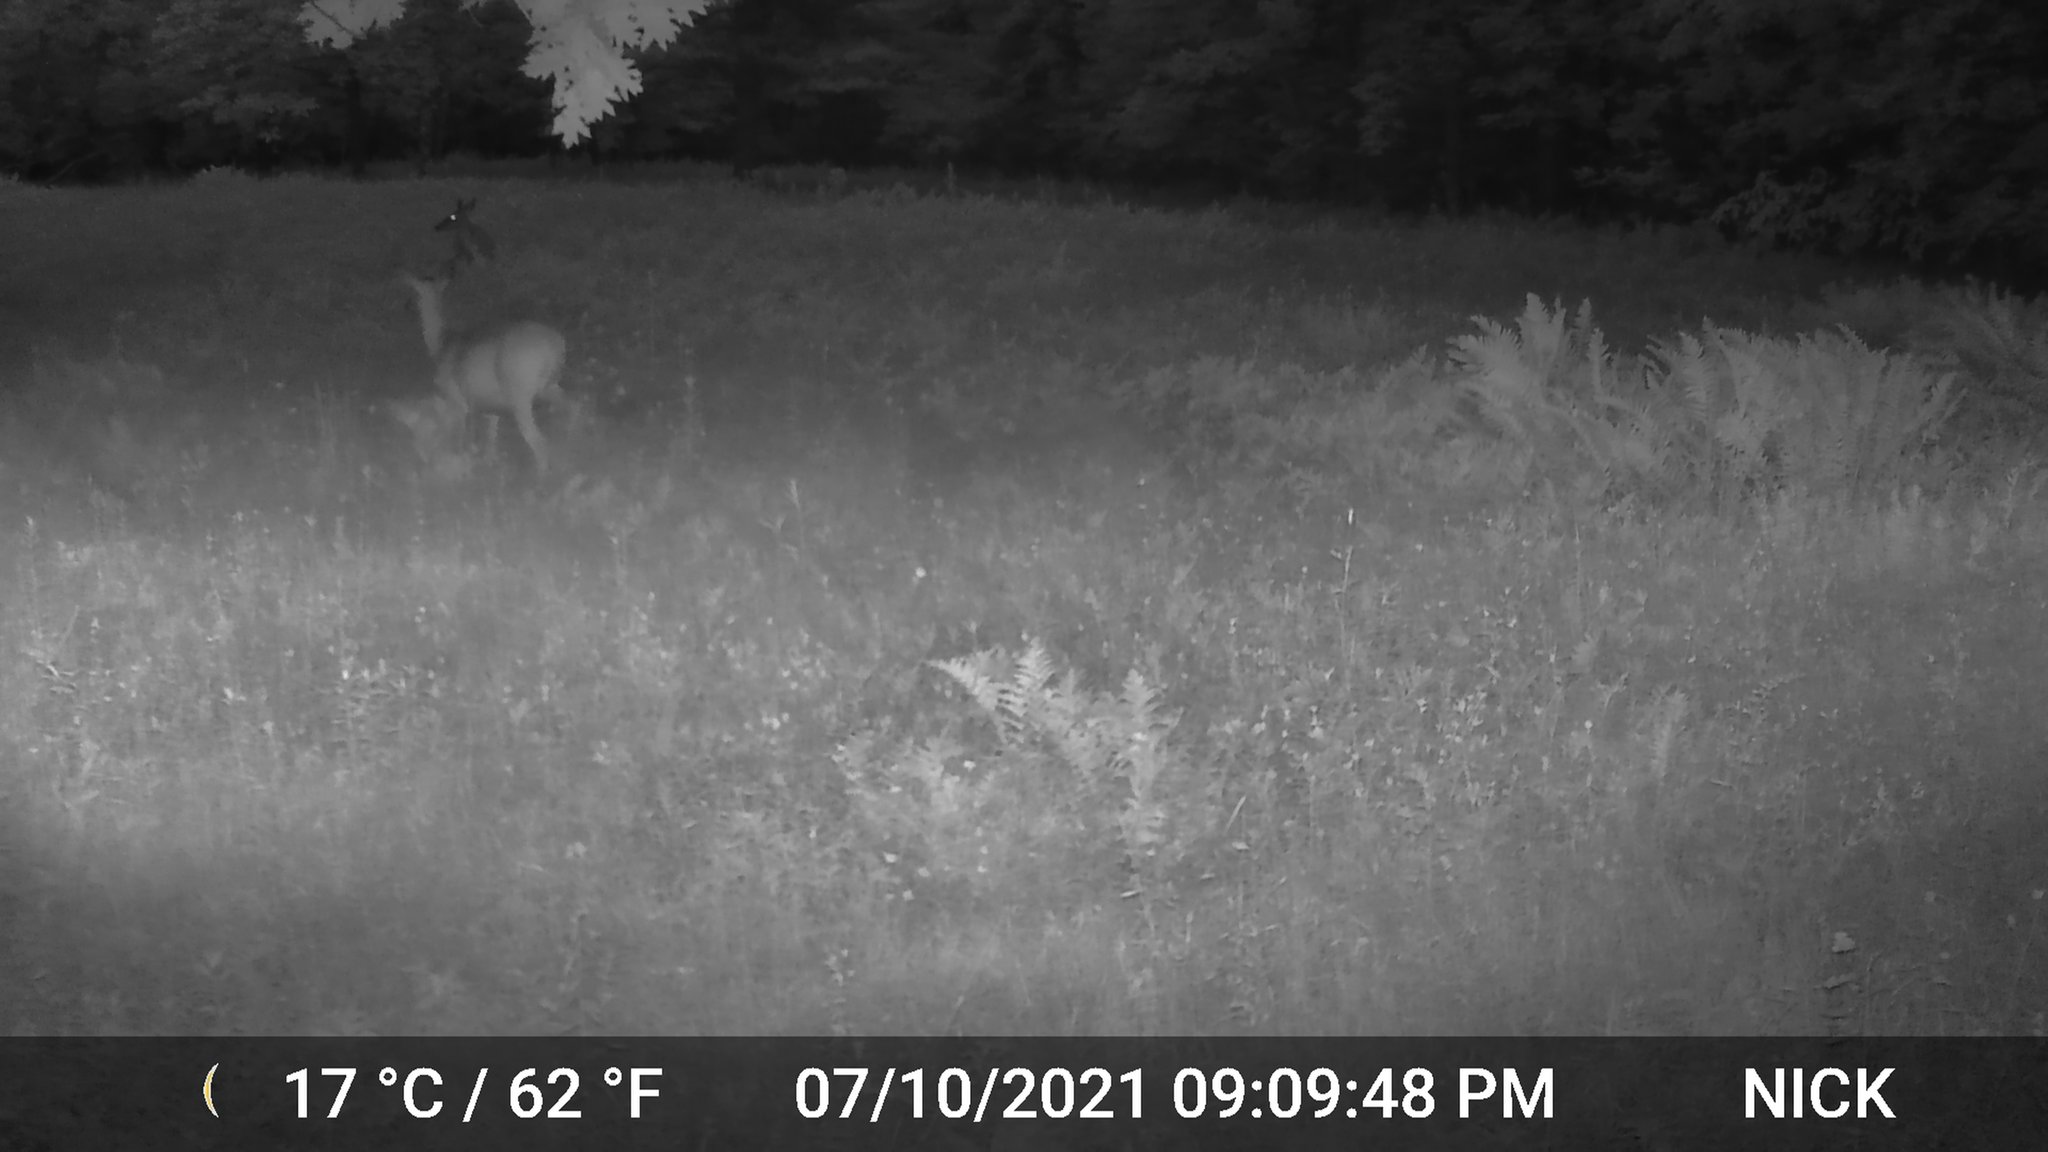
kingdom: Animalia
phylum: Chordata
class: Mammalia
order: Artiodactyla
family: Cervidae
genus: Odocoileus
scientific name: Odocoileus virginianus
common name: White-tailed deer
